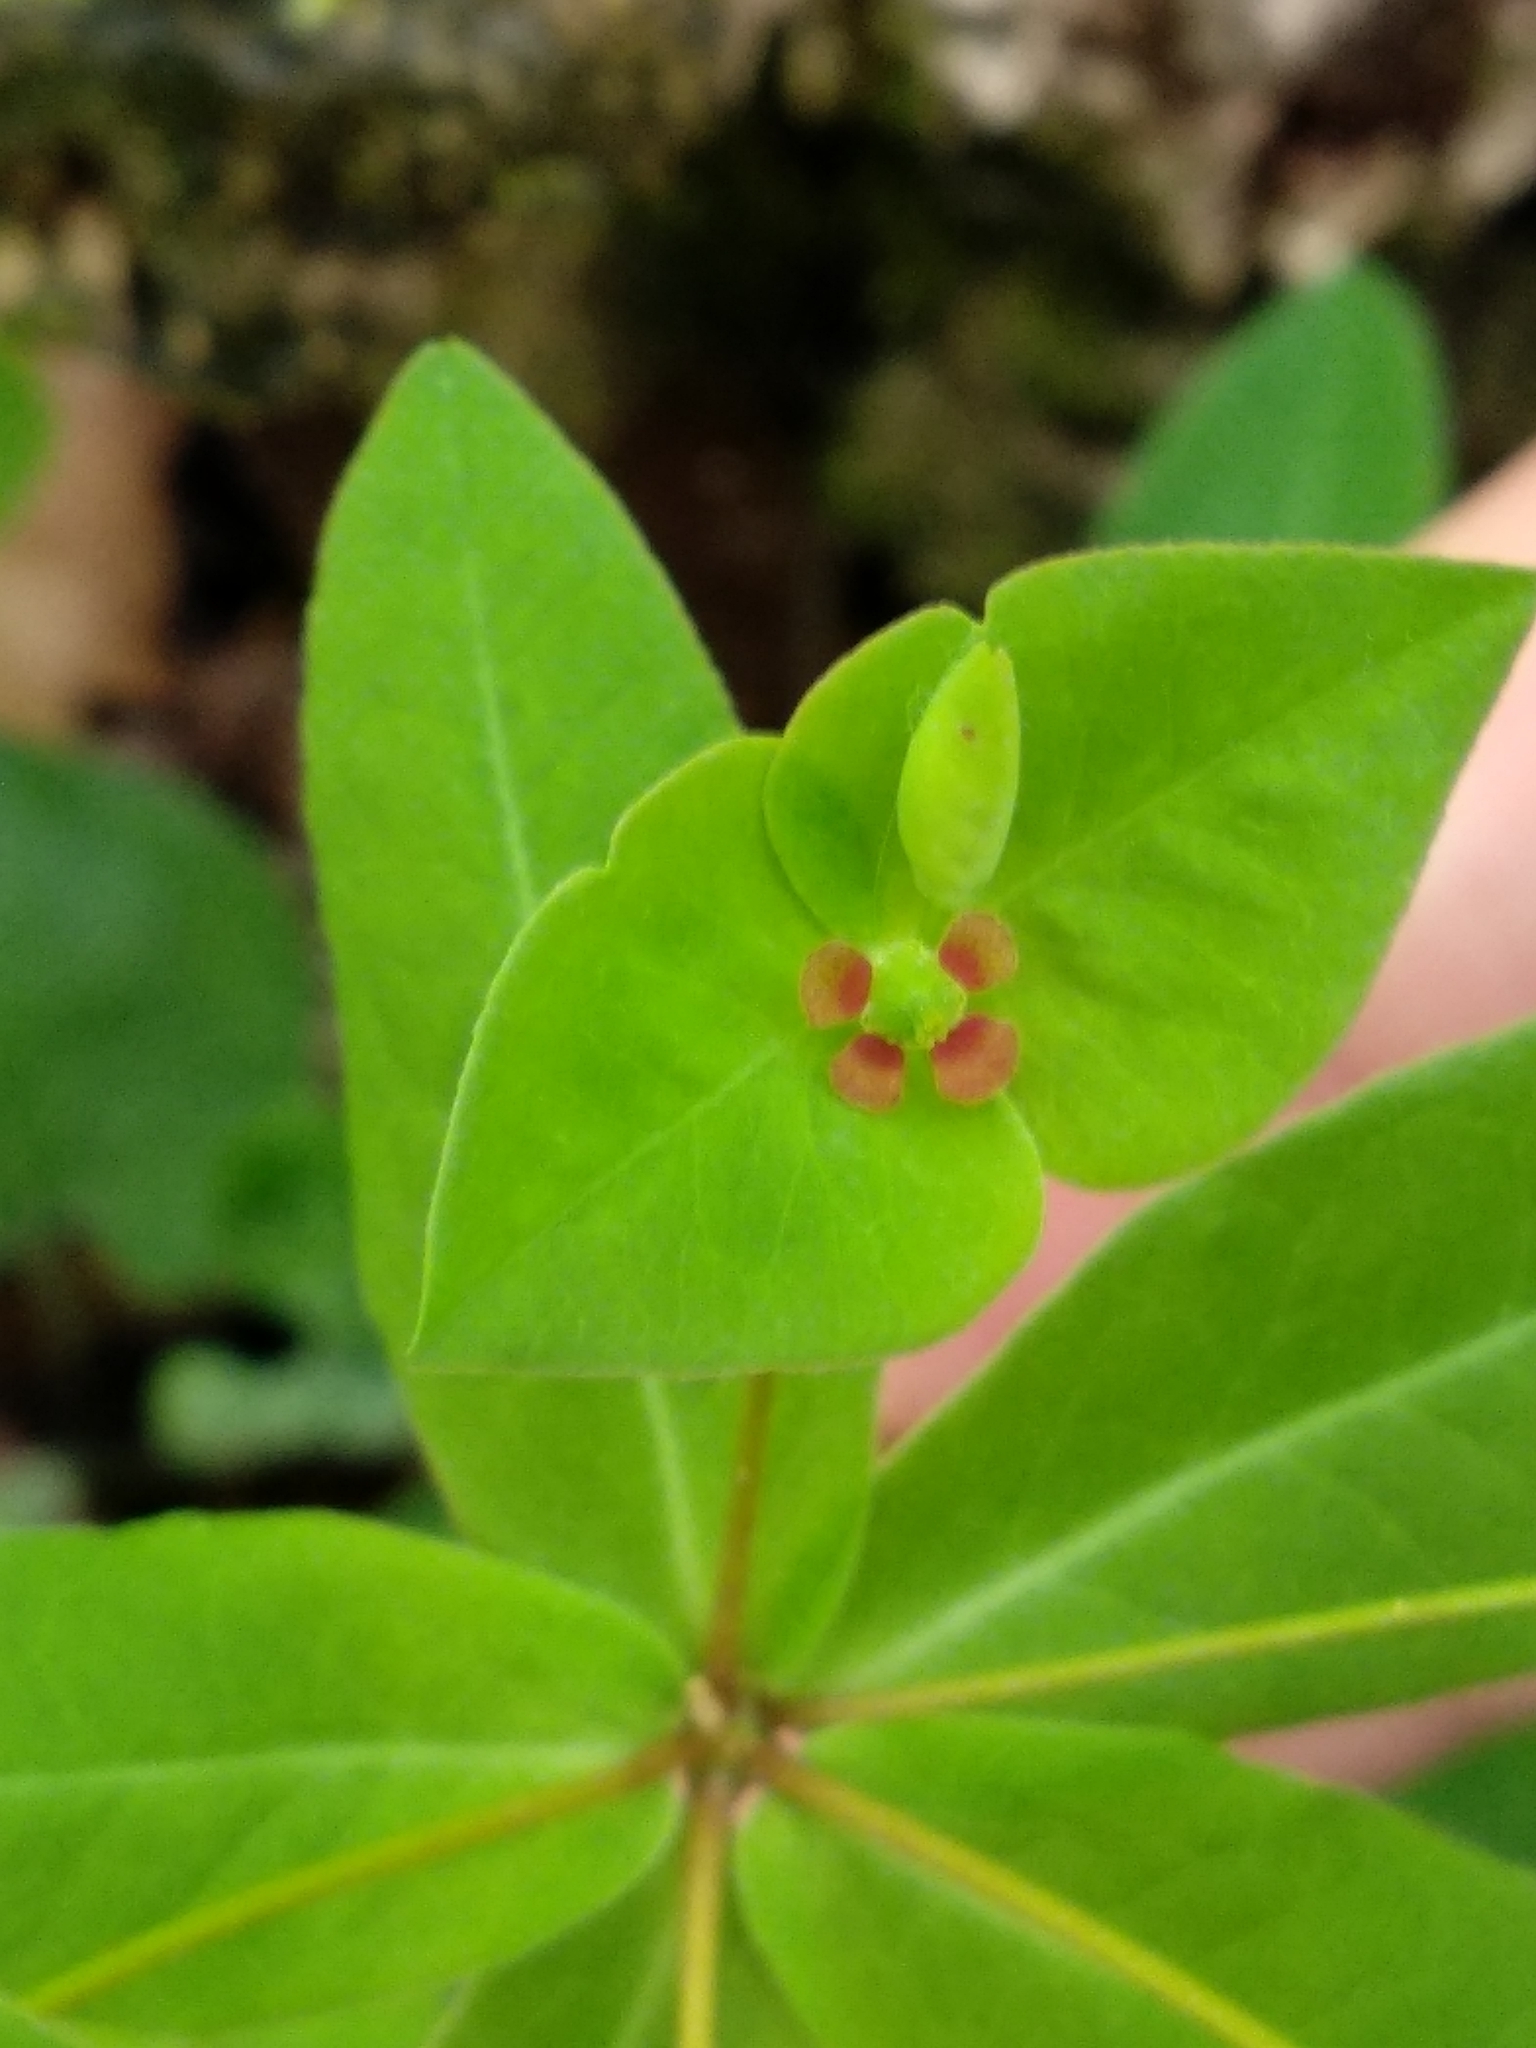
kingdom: Plantae
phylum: Tracheophyta
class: Magnoliopsida
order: Malpighiales
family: Euphorbiaceae
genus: Euphorbia
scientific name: Euphorbia dulcis
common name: Sweet spurge
